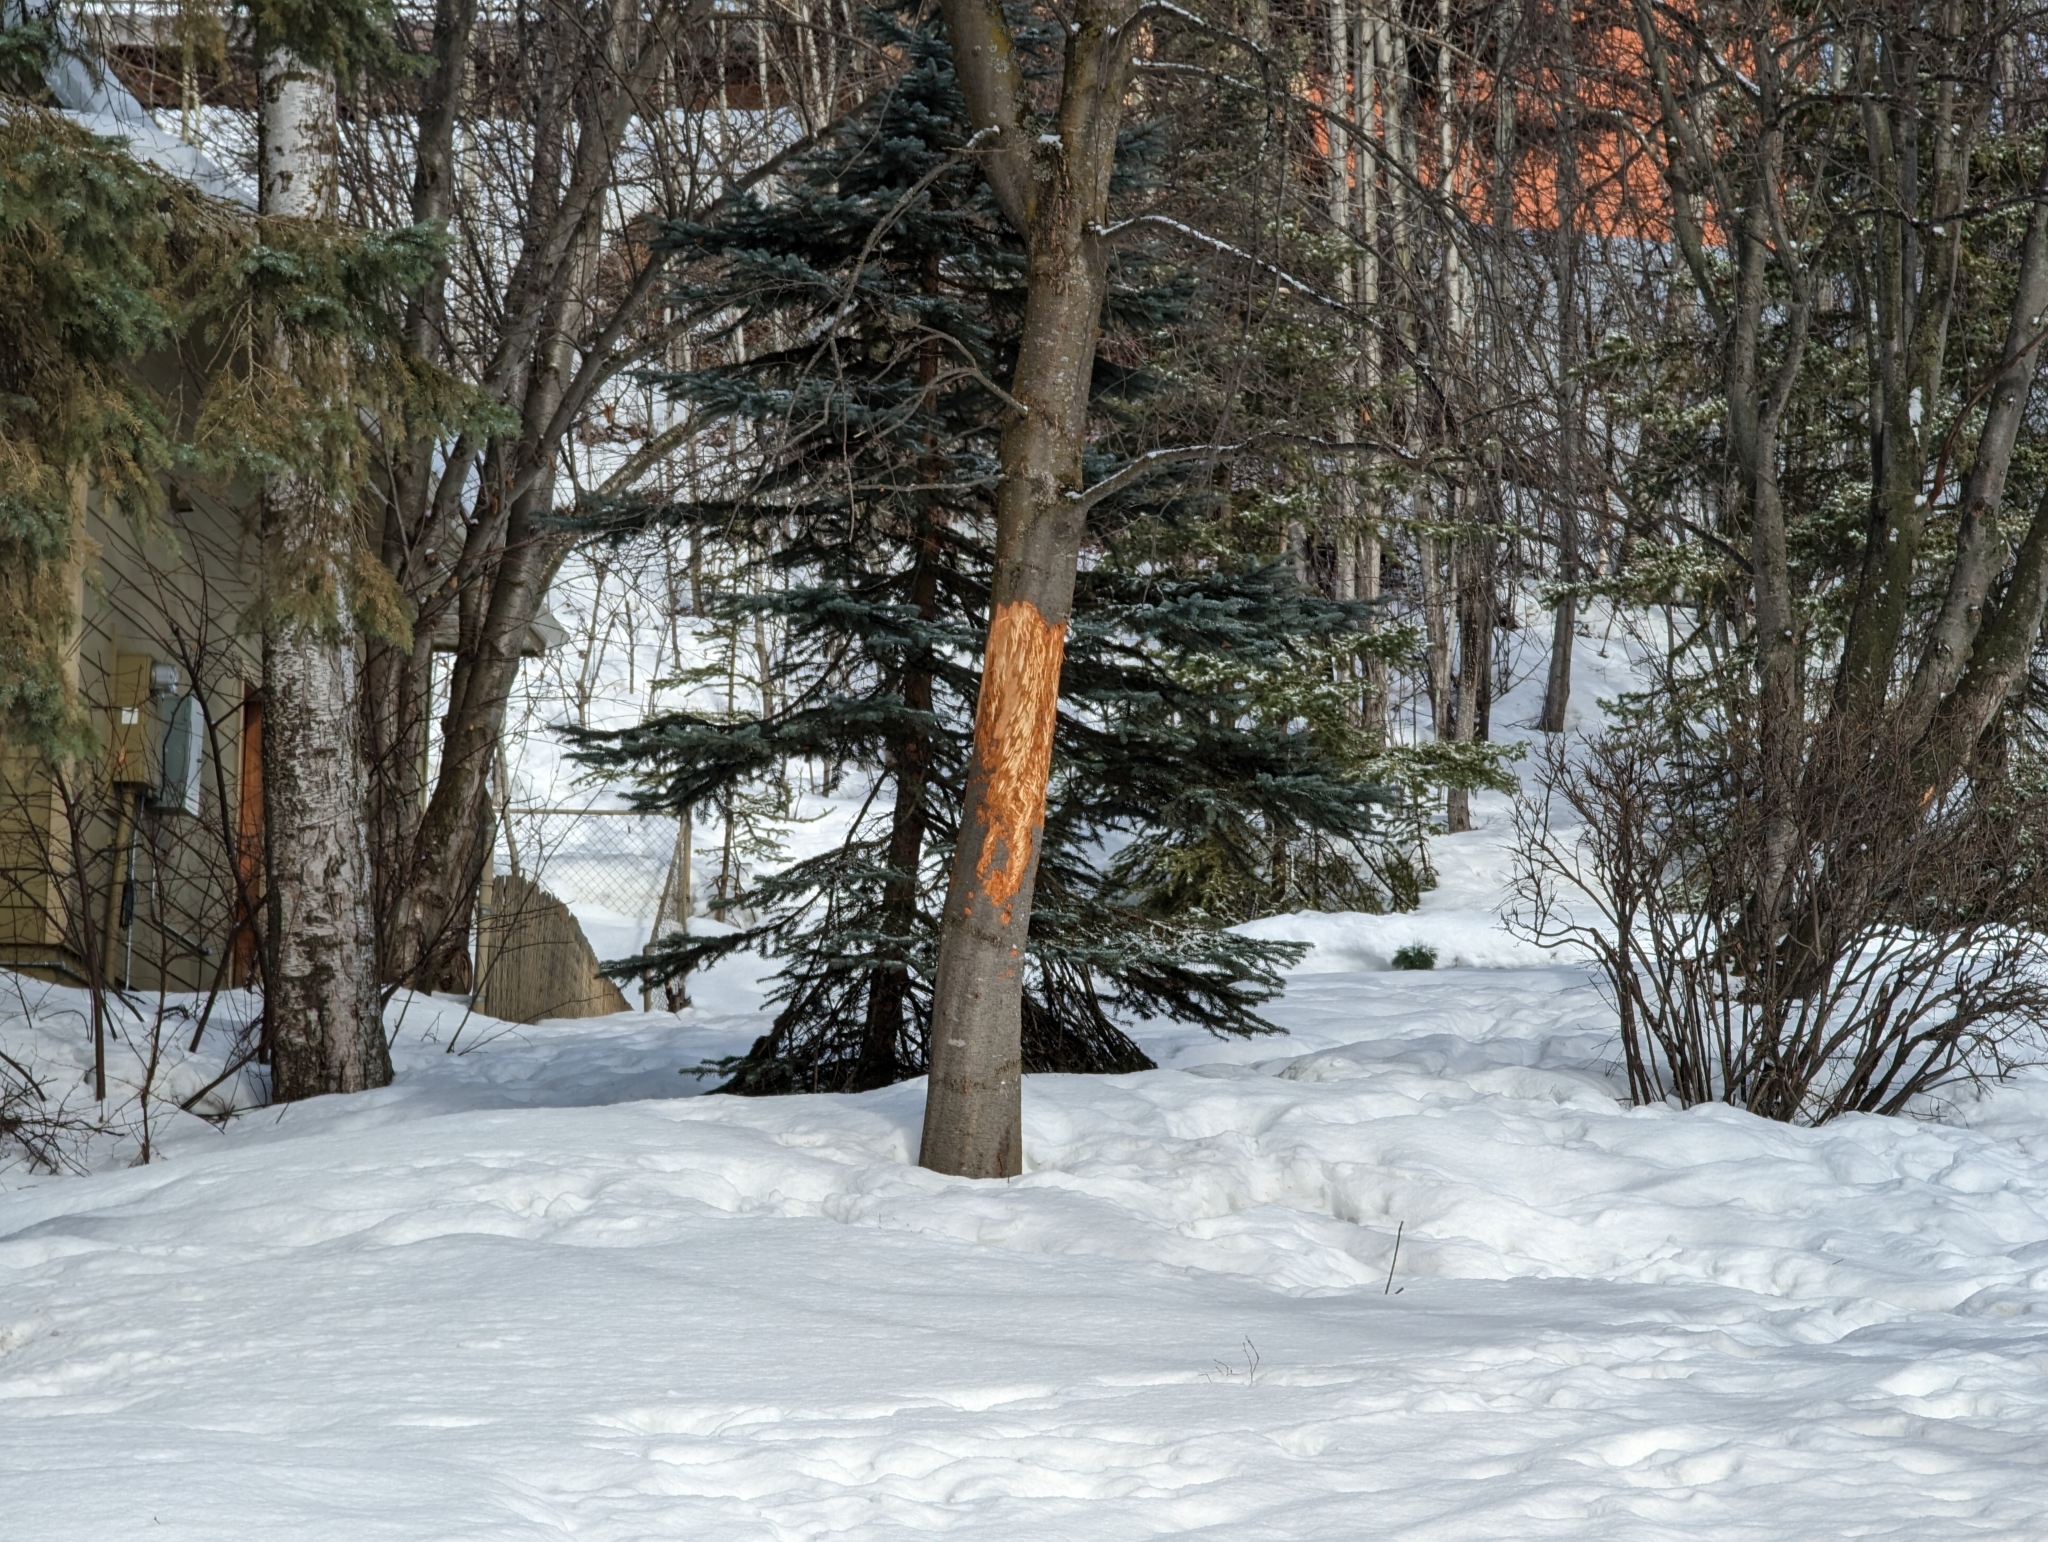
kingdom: Animalia
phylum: Chordata
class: Mammalia
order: Artiodactyla
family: Cervidae
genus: Alces
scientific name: Alces alces
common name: Moose
